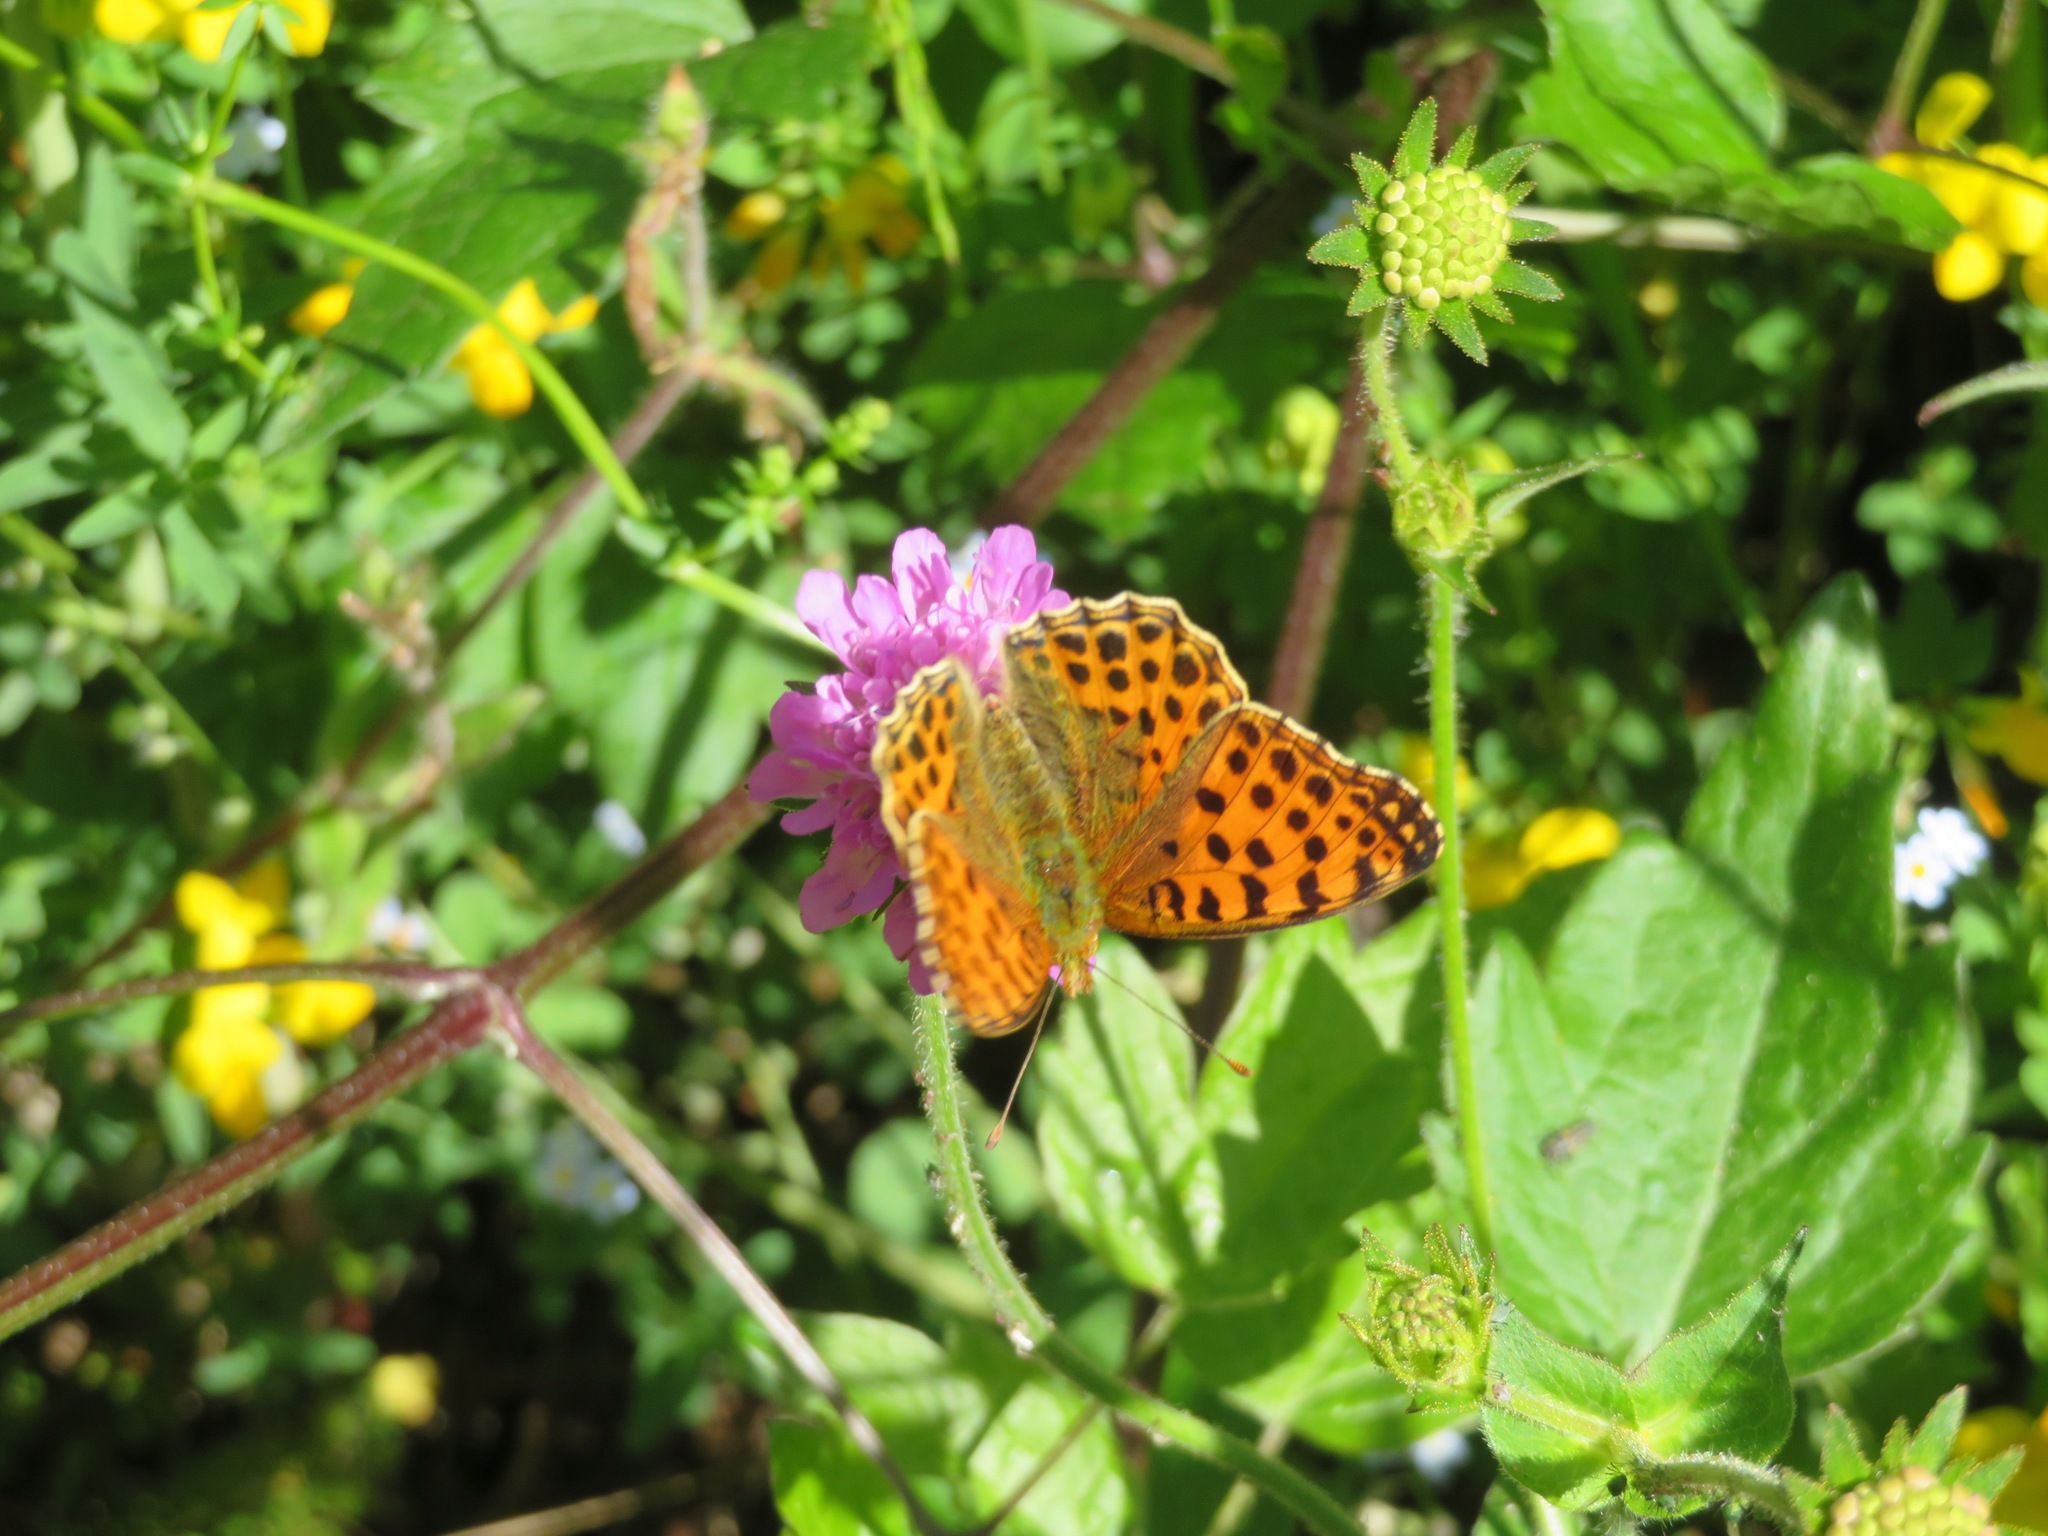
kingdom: Animalia
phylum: Arthropoda
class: Insecta
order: Lepidoptera
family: Nymphalidae
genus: Issoria
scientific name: Issoria lathonia
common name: Queen of spain fritillary
